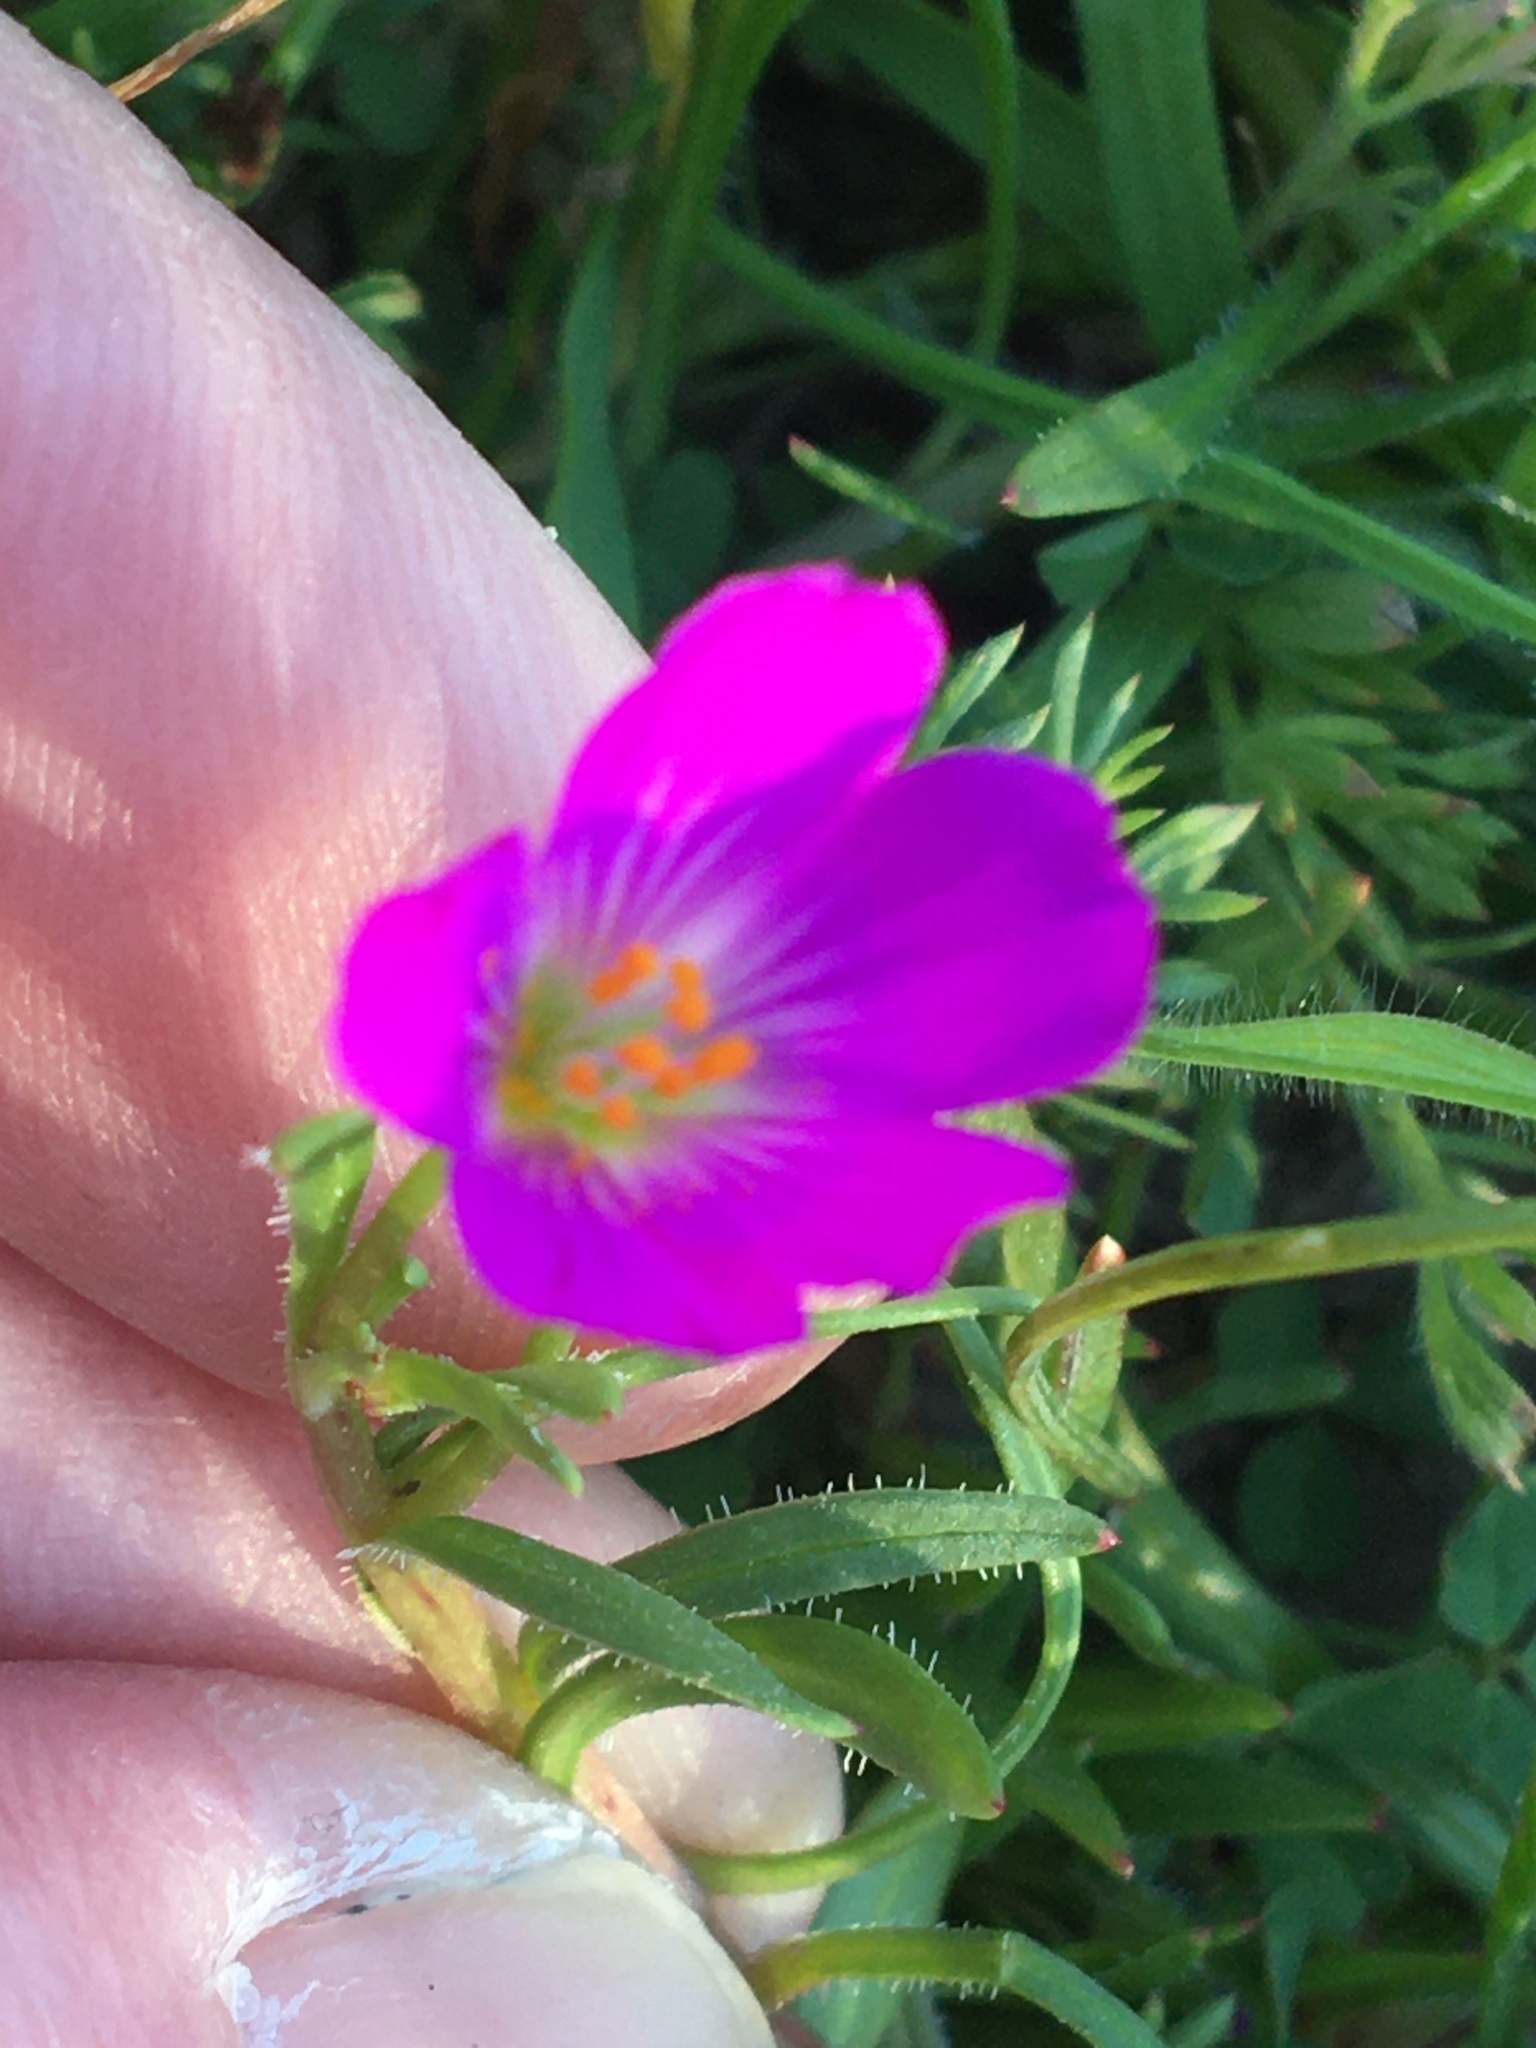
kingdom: Plantae
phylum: Tracheophyta
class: Magnoliopsida
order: Caryophyllales
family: Montiaceae
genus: Calandrinia
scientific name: Calandrinia menziesii
